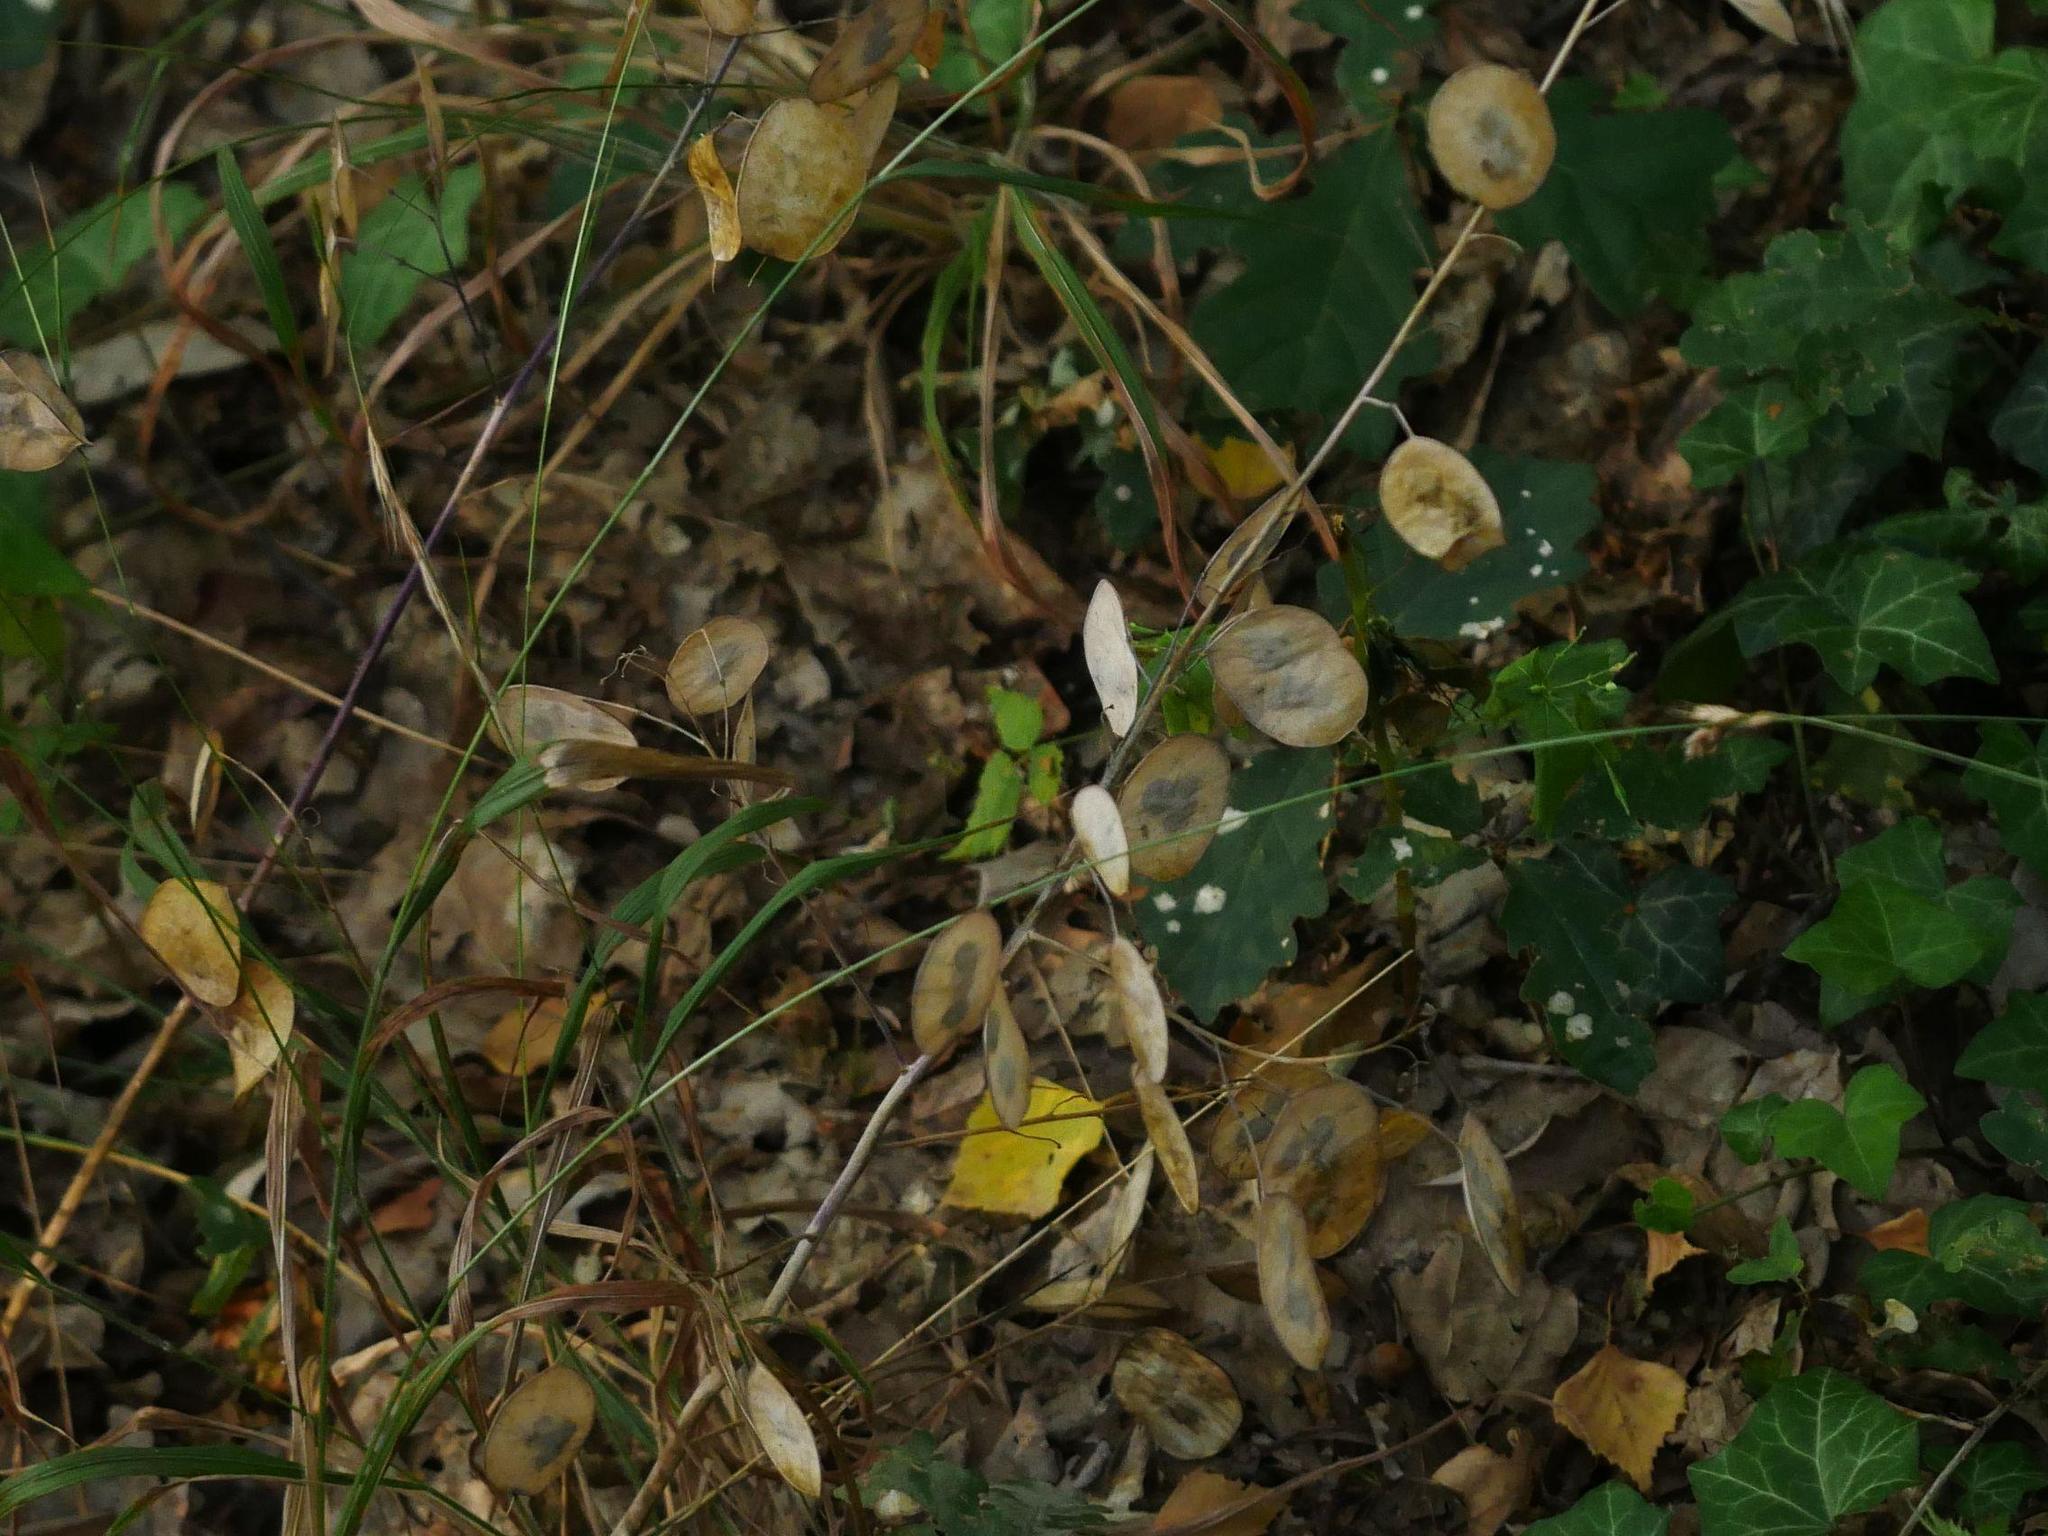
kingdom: Plantae
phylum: Tracheophyta
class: Magnoliopsida
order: Brassicales
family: Brassicaceae
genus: Lunaria
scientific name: Lunaria annua
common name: Honesty
